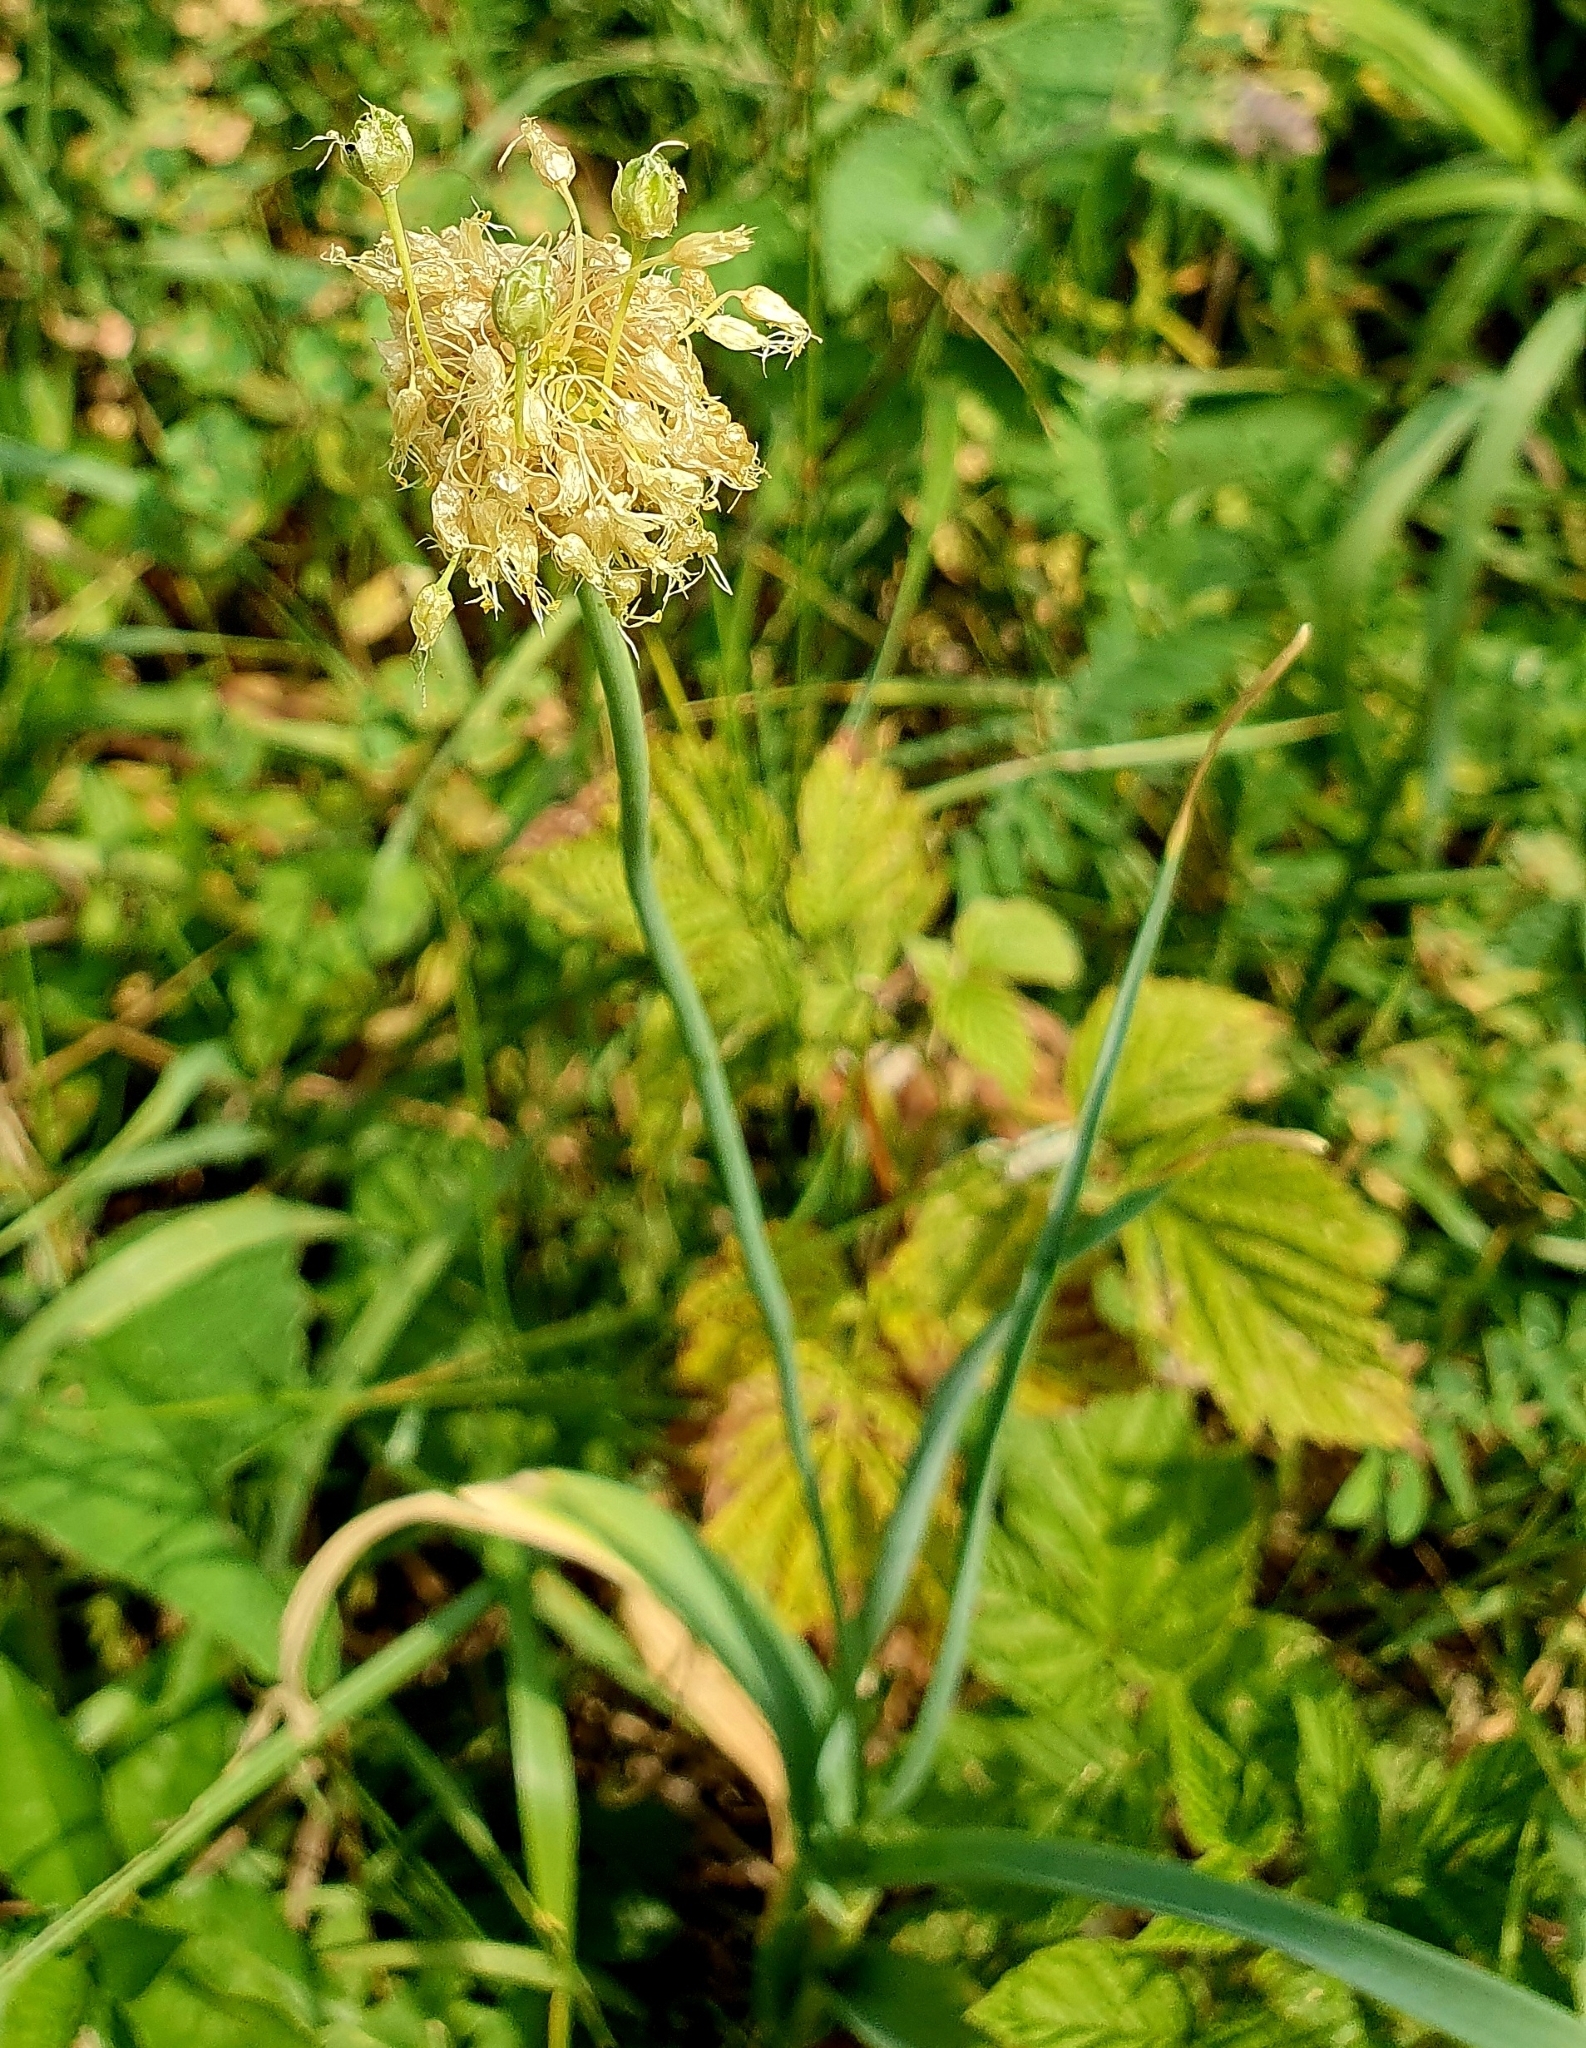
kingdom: Plantae
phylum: Tracheophyta
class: Liliopsida
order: Asparagales
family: Amaryllidaceae
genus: Allium
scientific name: Allium obliquum
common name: Oblique onion
